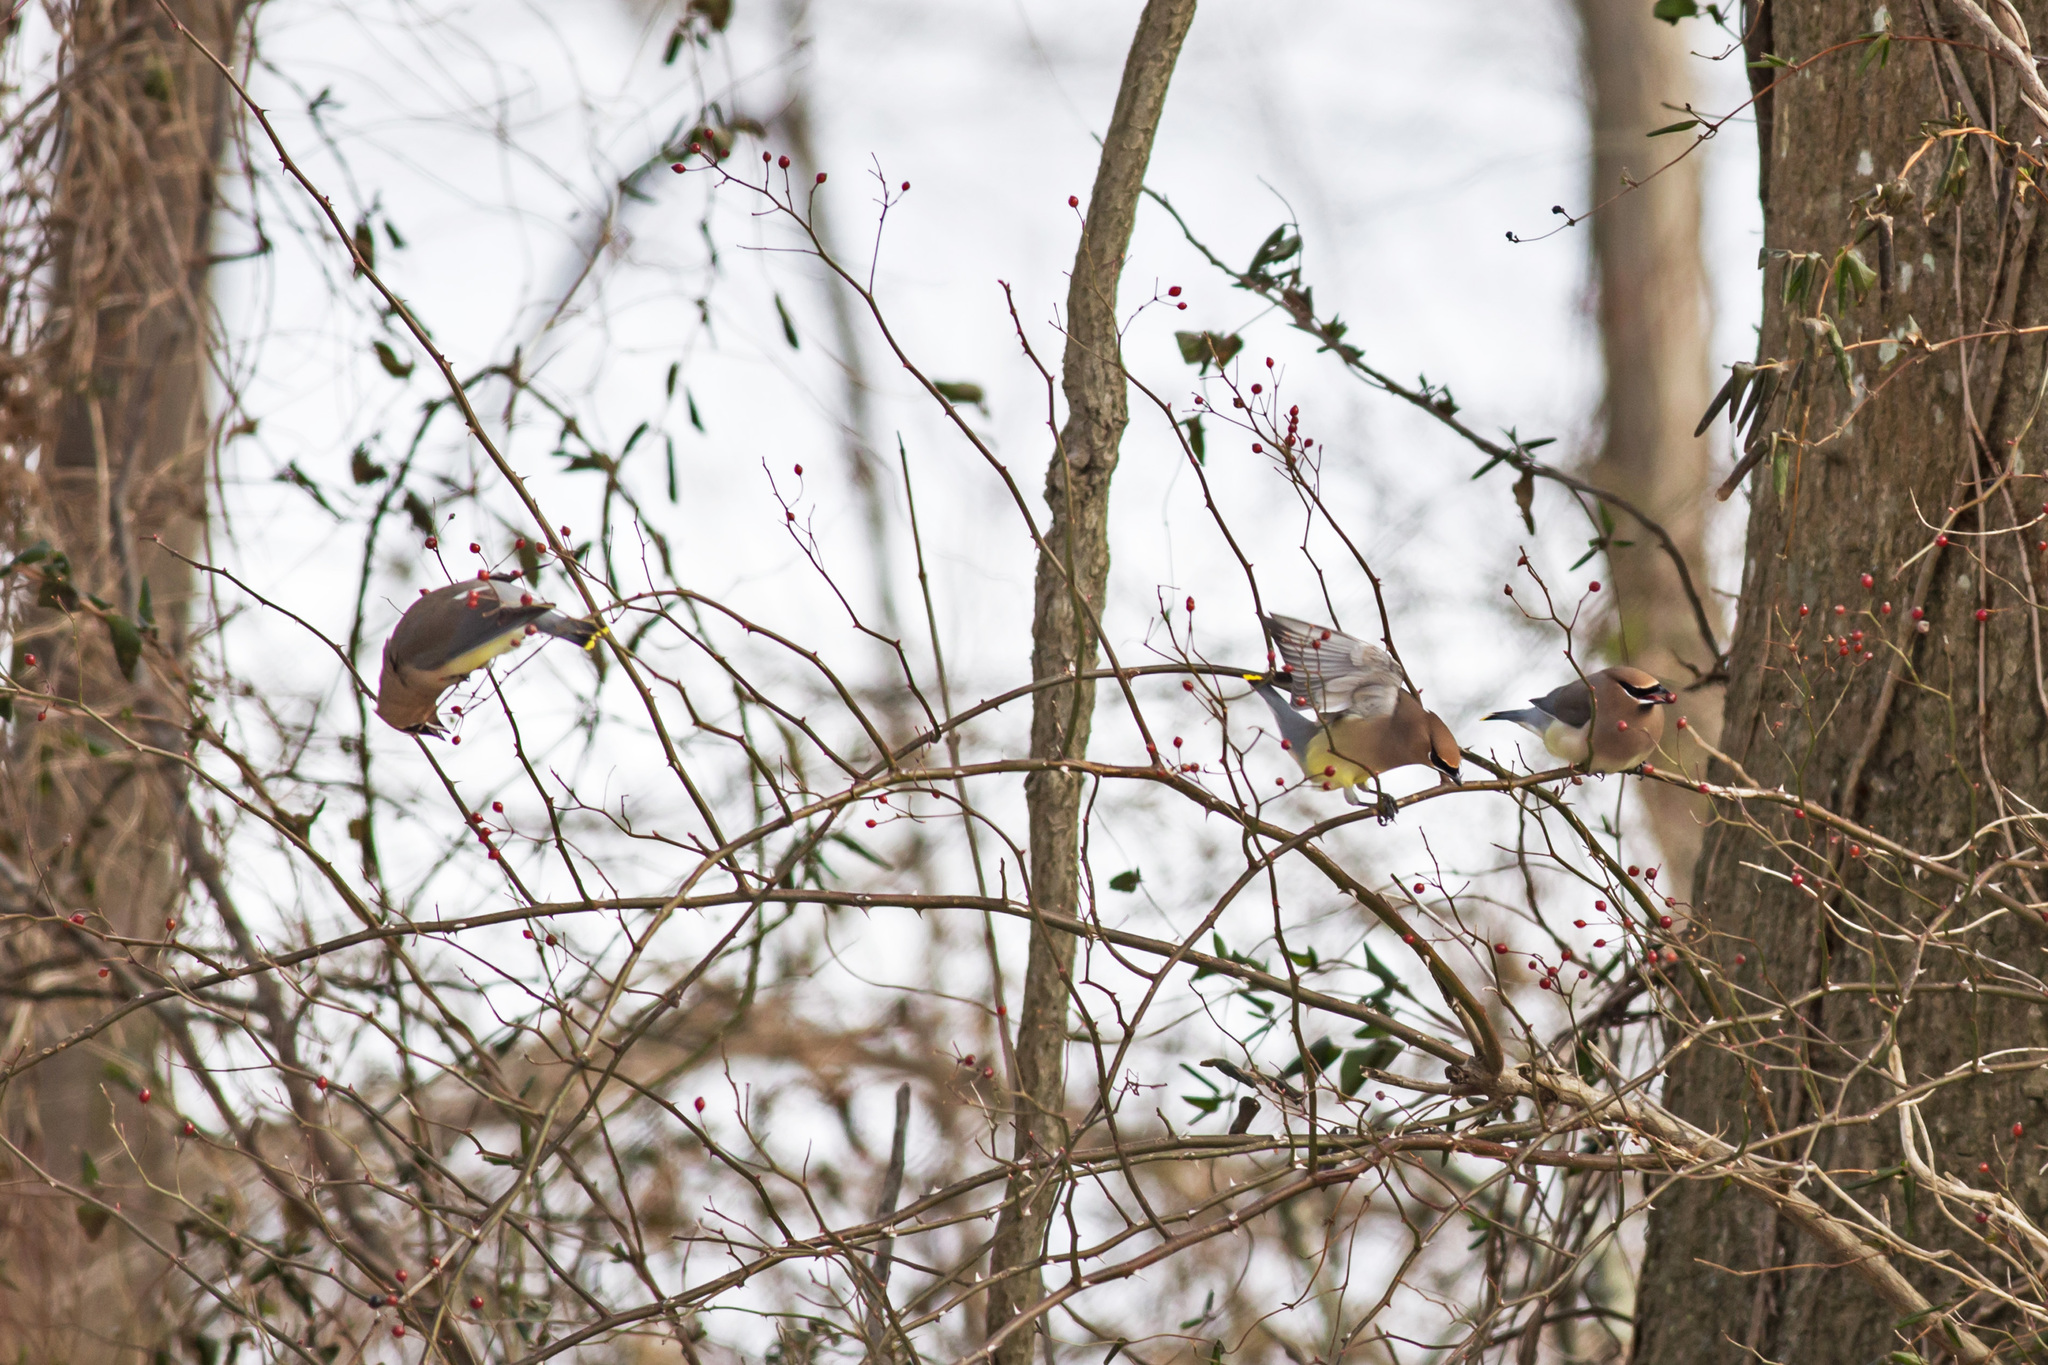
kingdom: Animalia
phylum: Chordata
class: Aves
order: Passeriformes
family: Bombycillidae
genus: Bombycilla
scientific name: Bombycilla cedrorum
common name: Cedar waxwing
